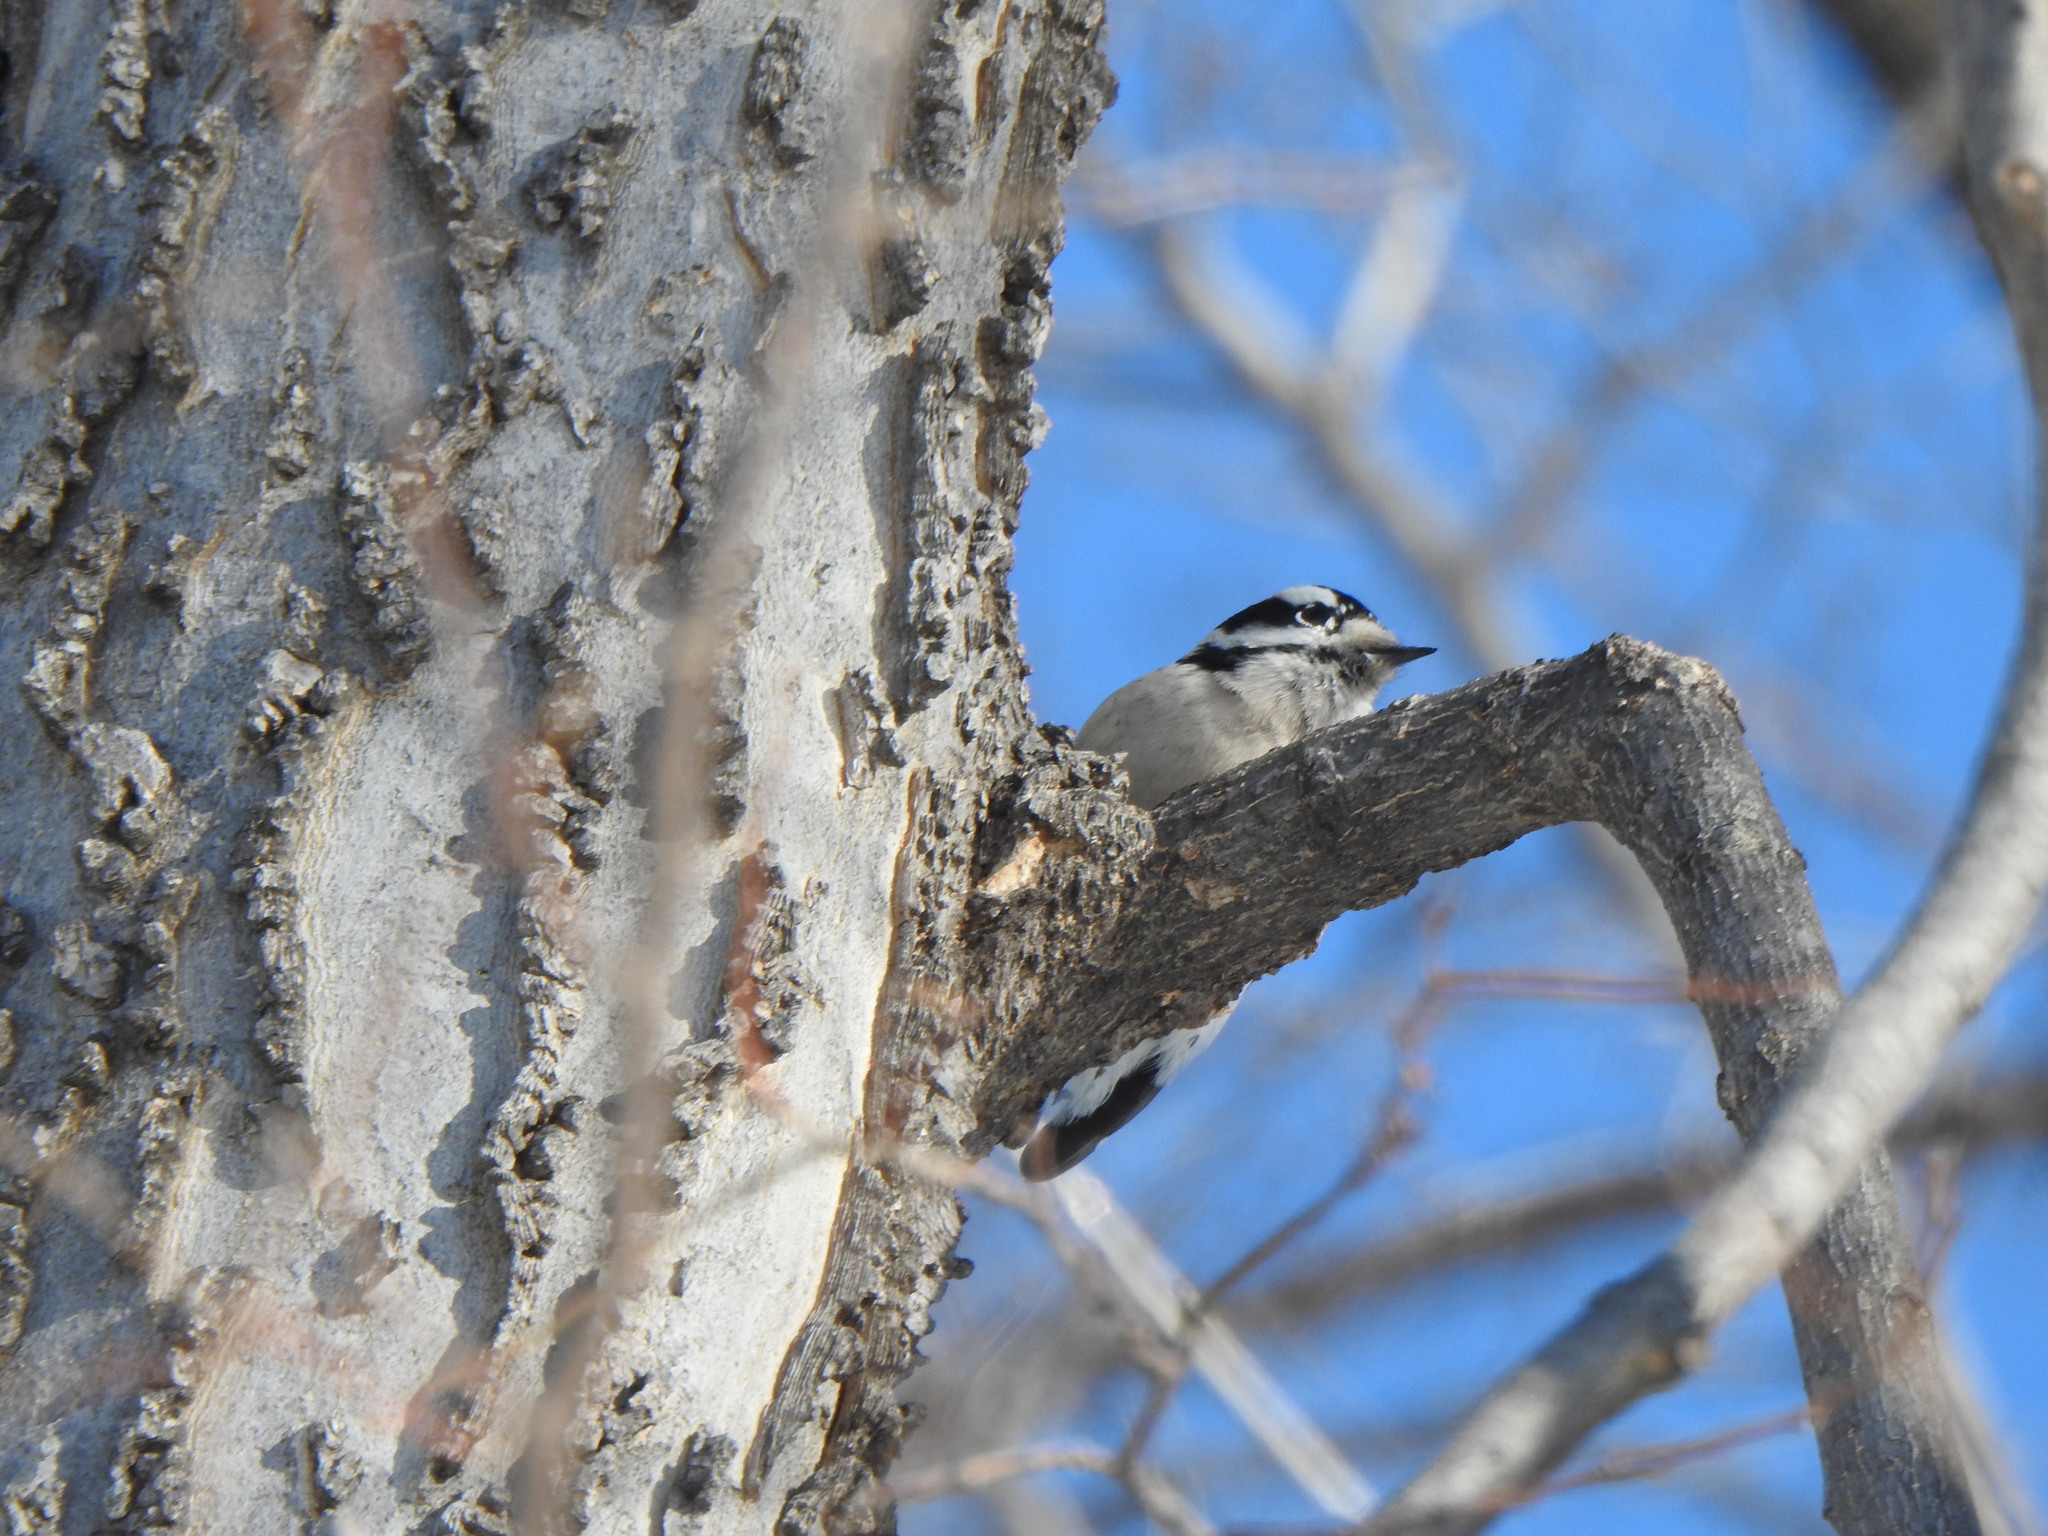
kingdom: Animalia
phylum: Chordata
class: Aves
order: Piciformes
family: Picidae
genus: Dryobates
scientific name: Dryobates pubescens
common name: Downy woodpecker
